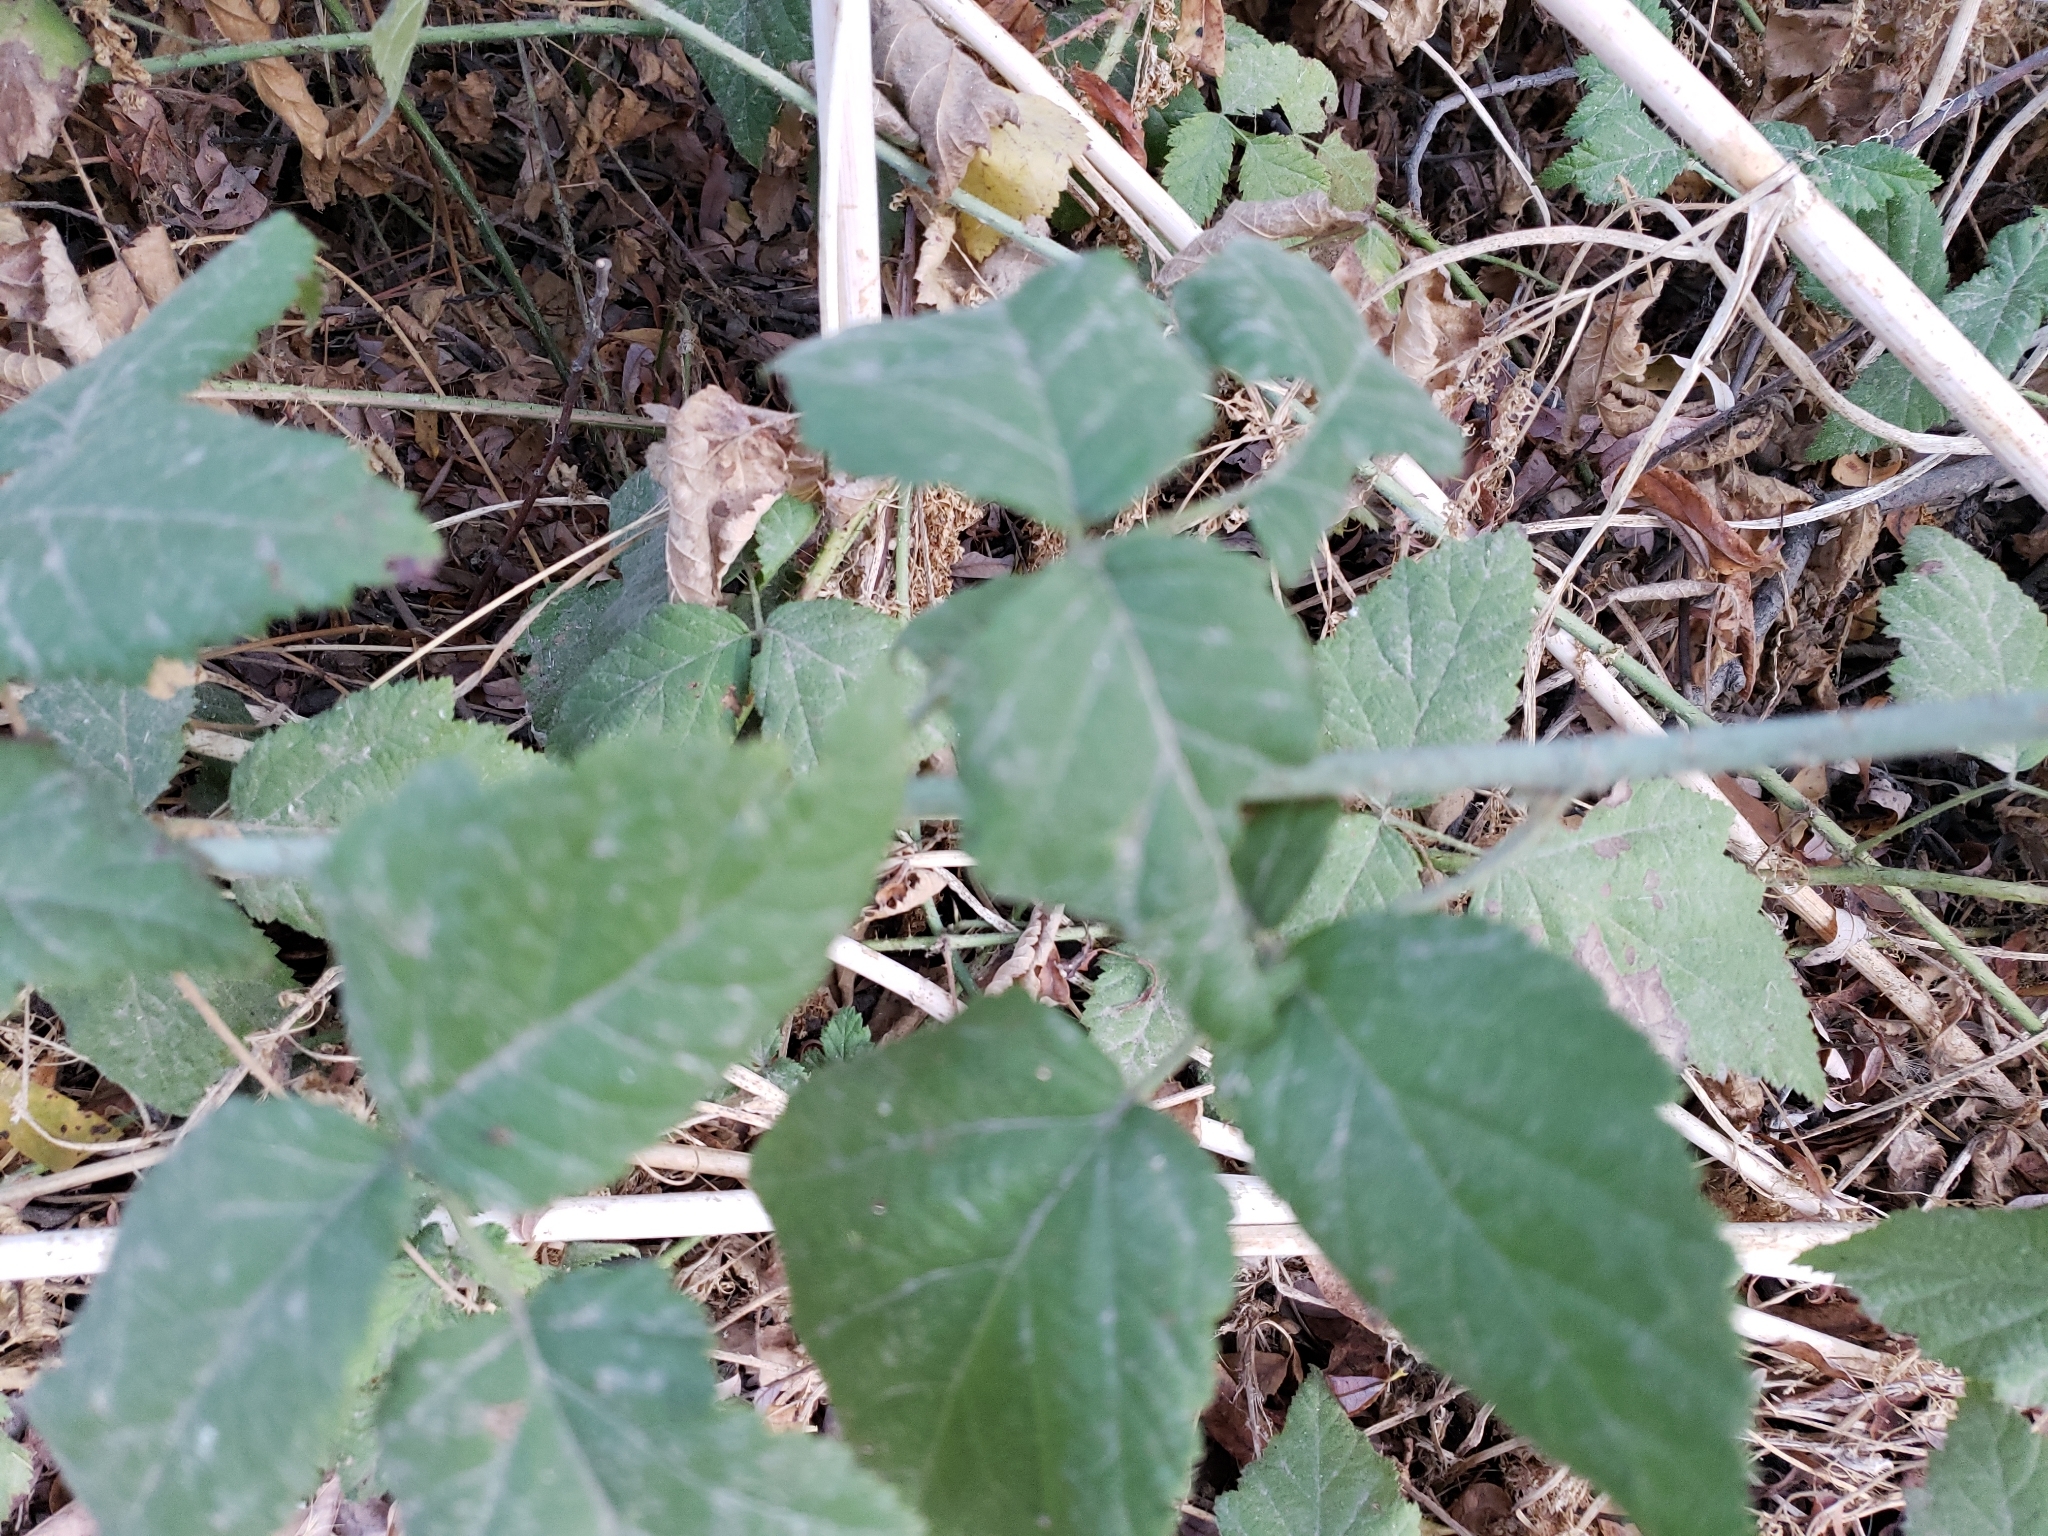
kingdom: Plantae
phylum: Tracheophyta
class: Magnoliopsida
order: Rosales
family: Rosaceae
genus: Rubus
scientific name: Rubus ursinus
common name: Pacific blackberry
